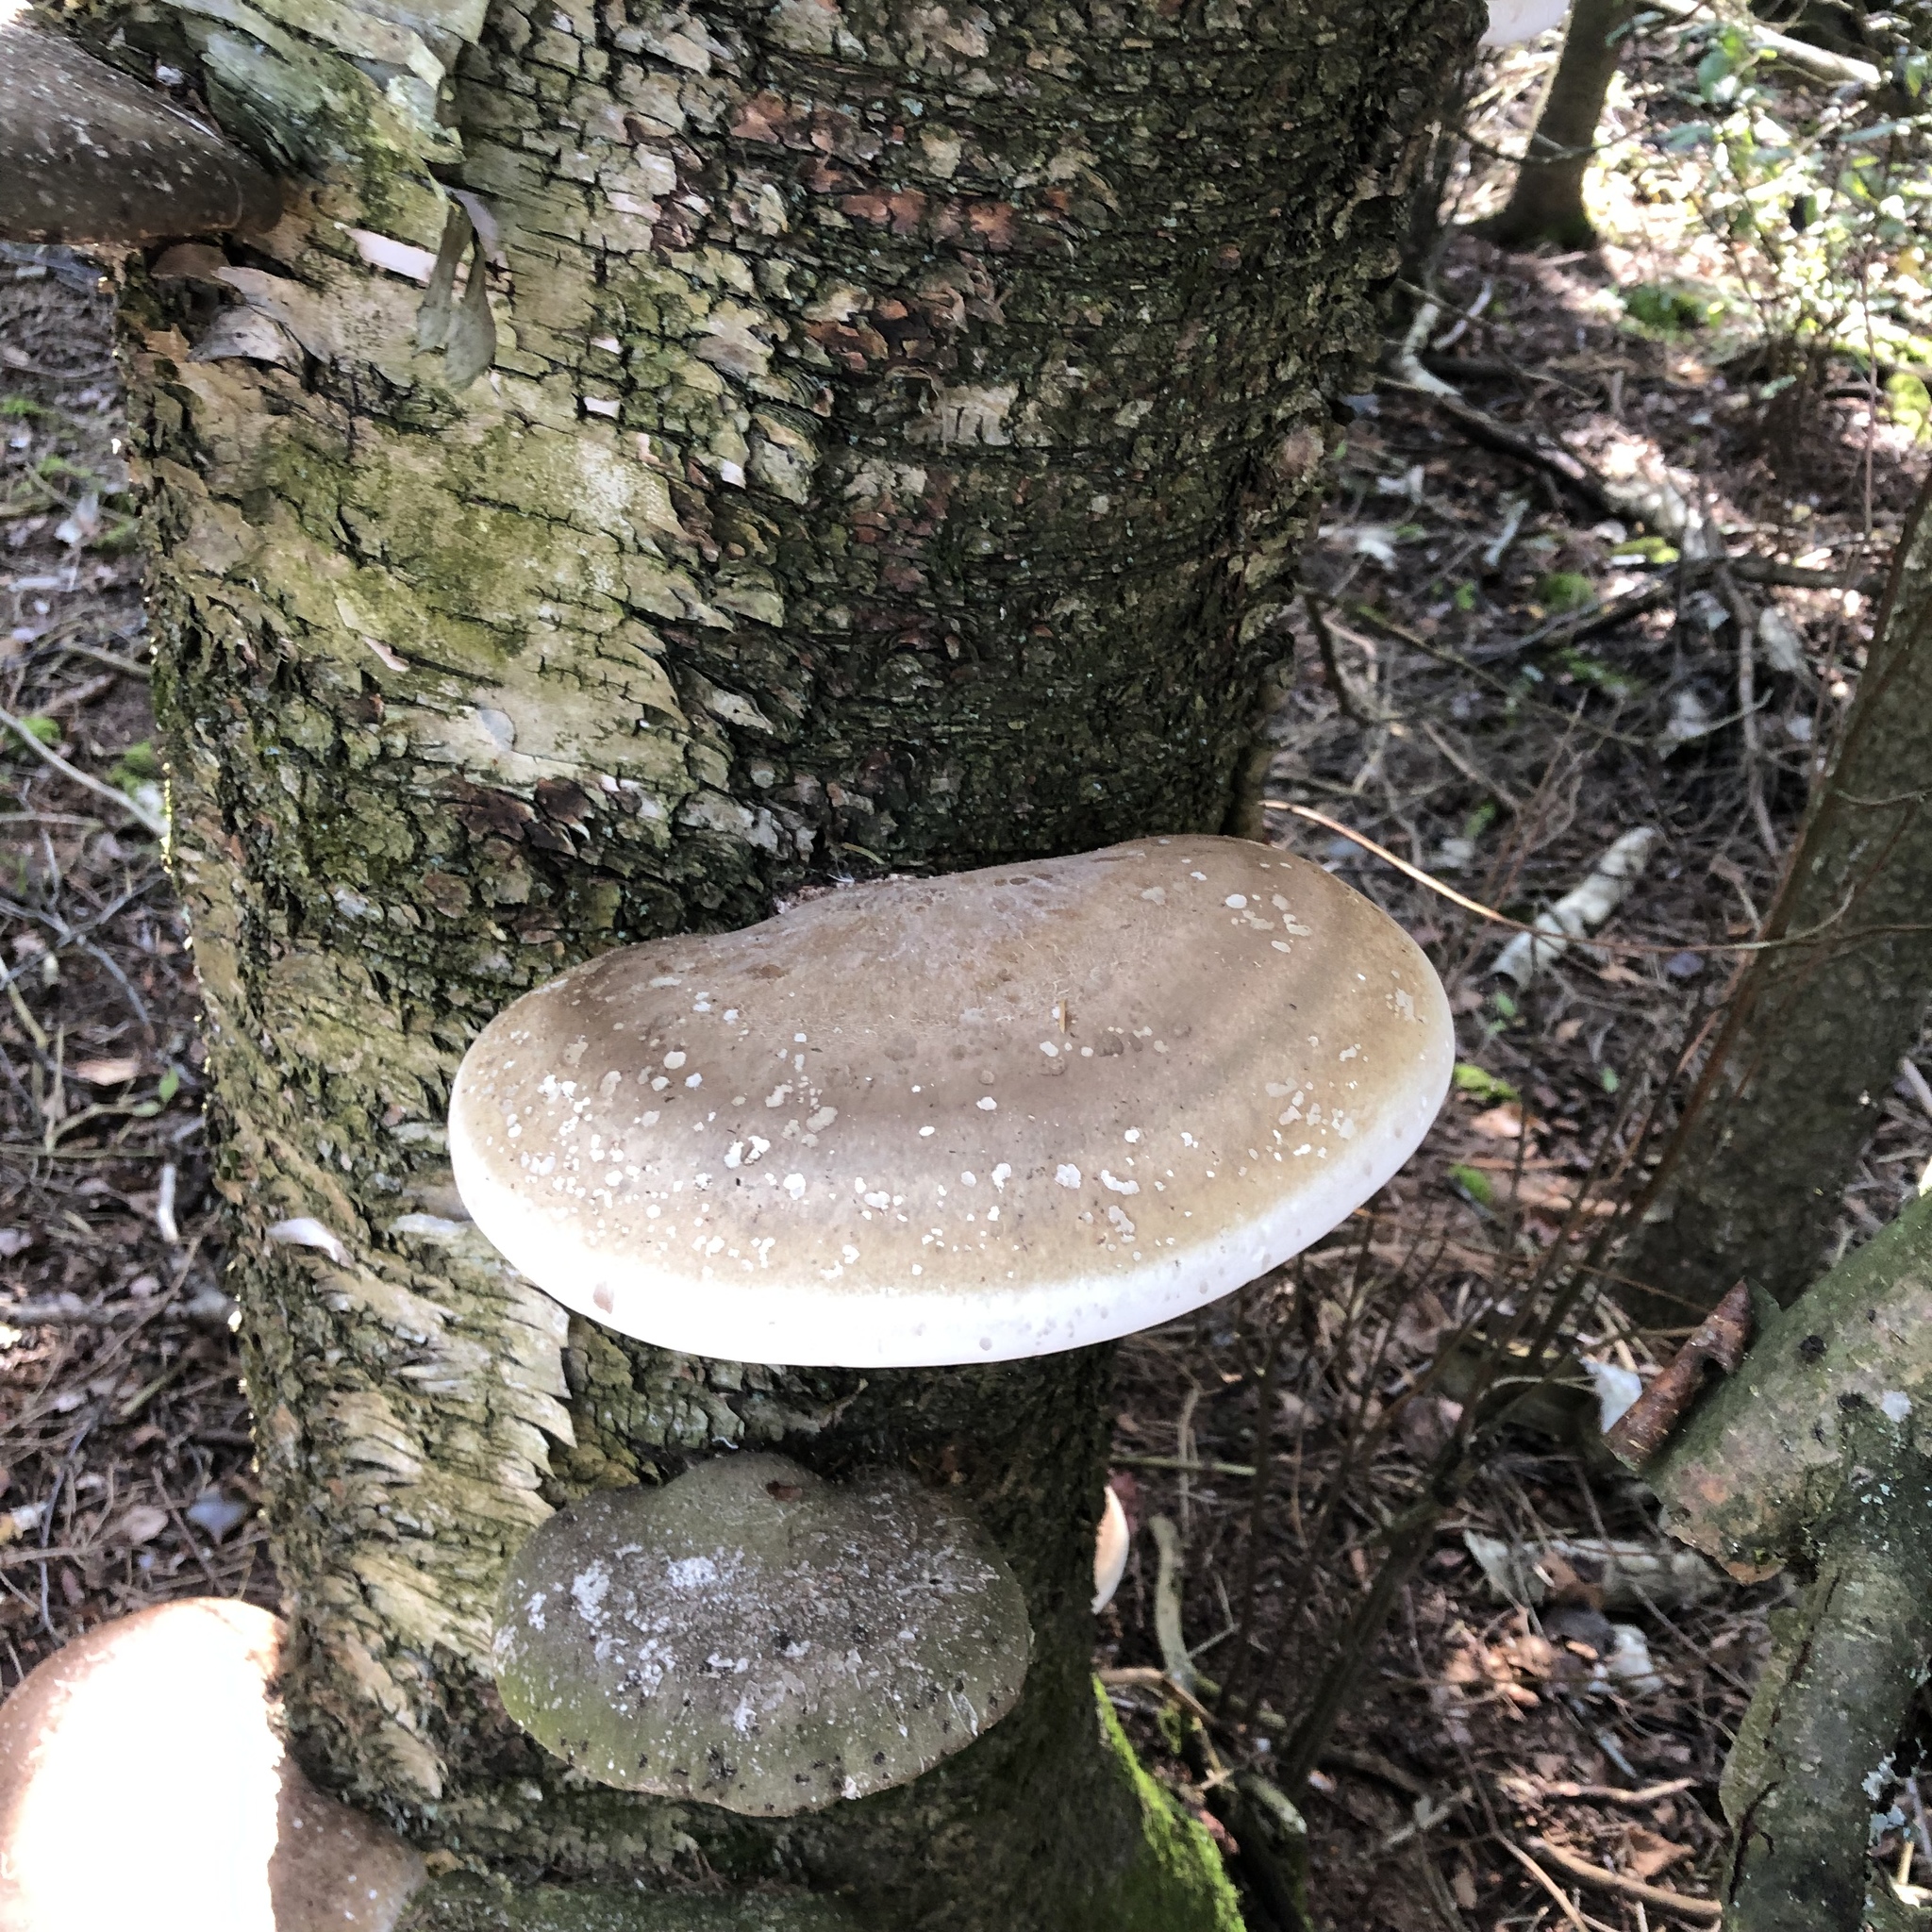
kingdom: Fungi
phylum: Basidiomycota
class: Agaricomycetes
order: Polyporales
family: Fomitopsidaceae
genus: Fomitopsis
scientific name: Fomitopsis betulina
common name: Birch polypore
